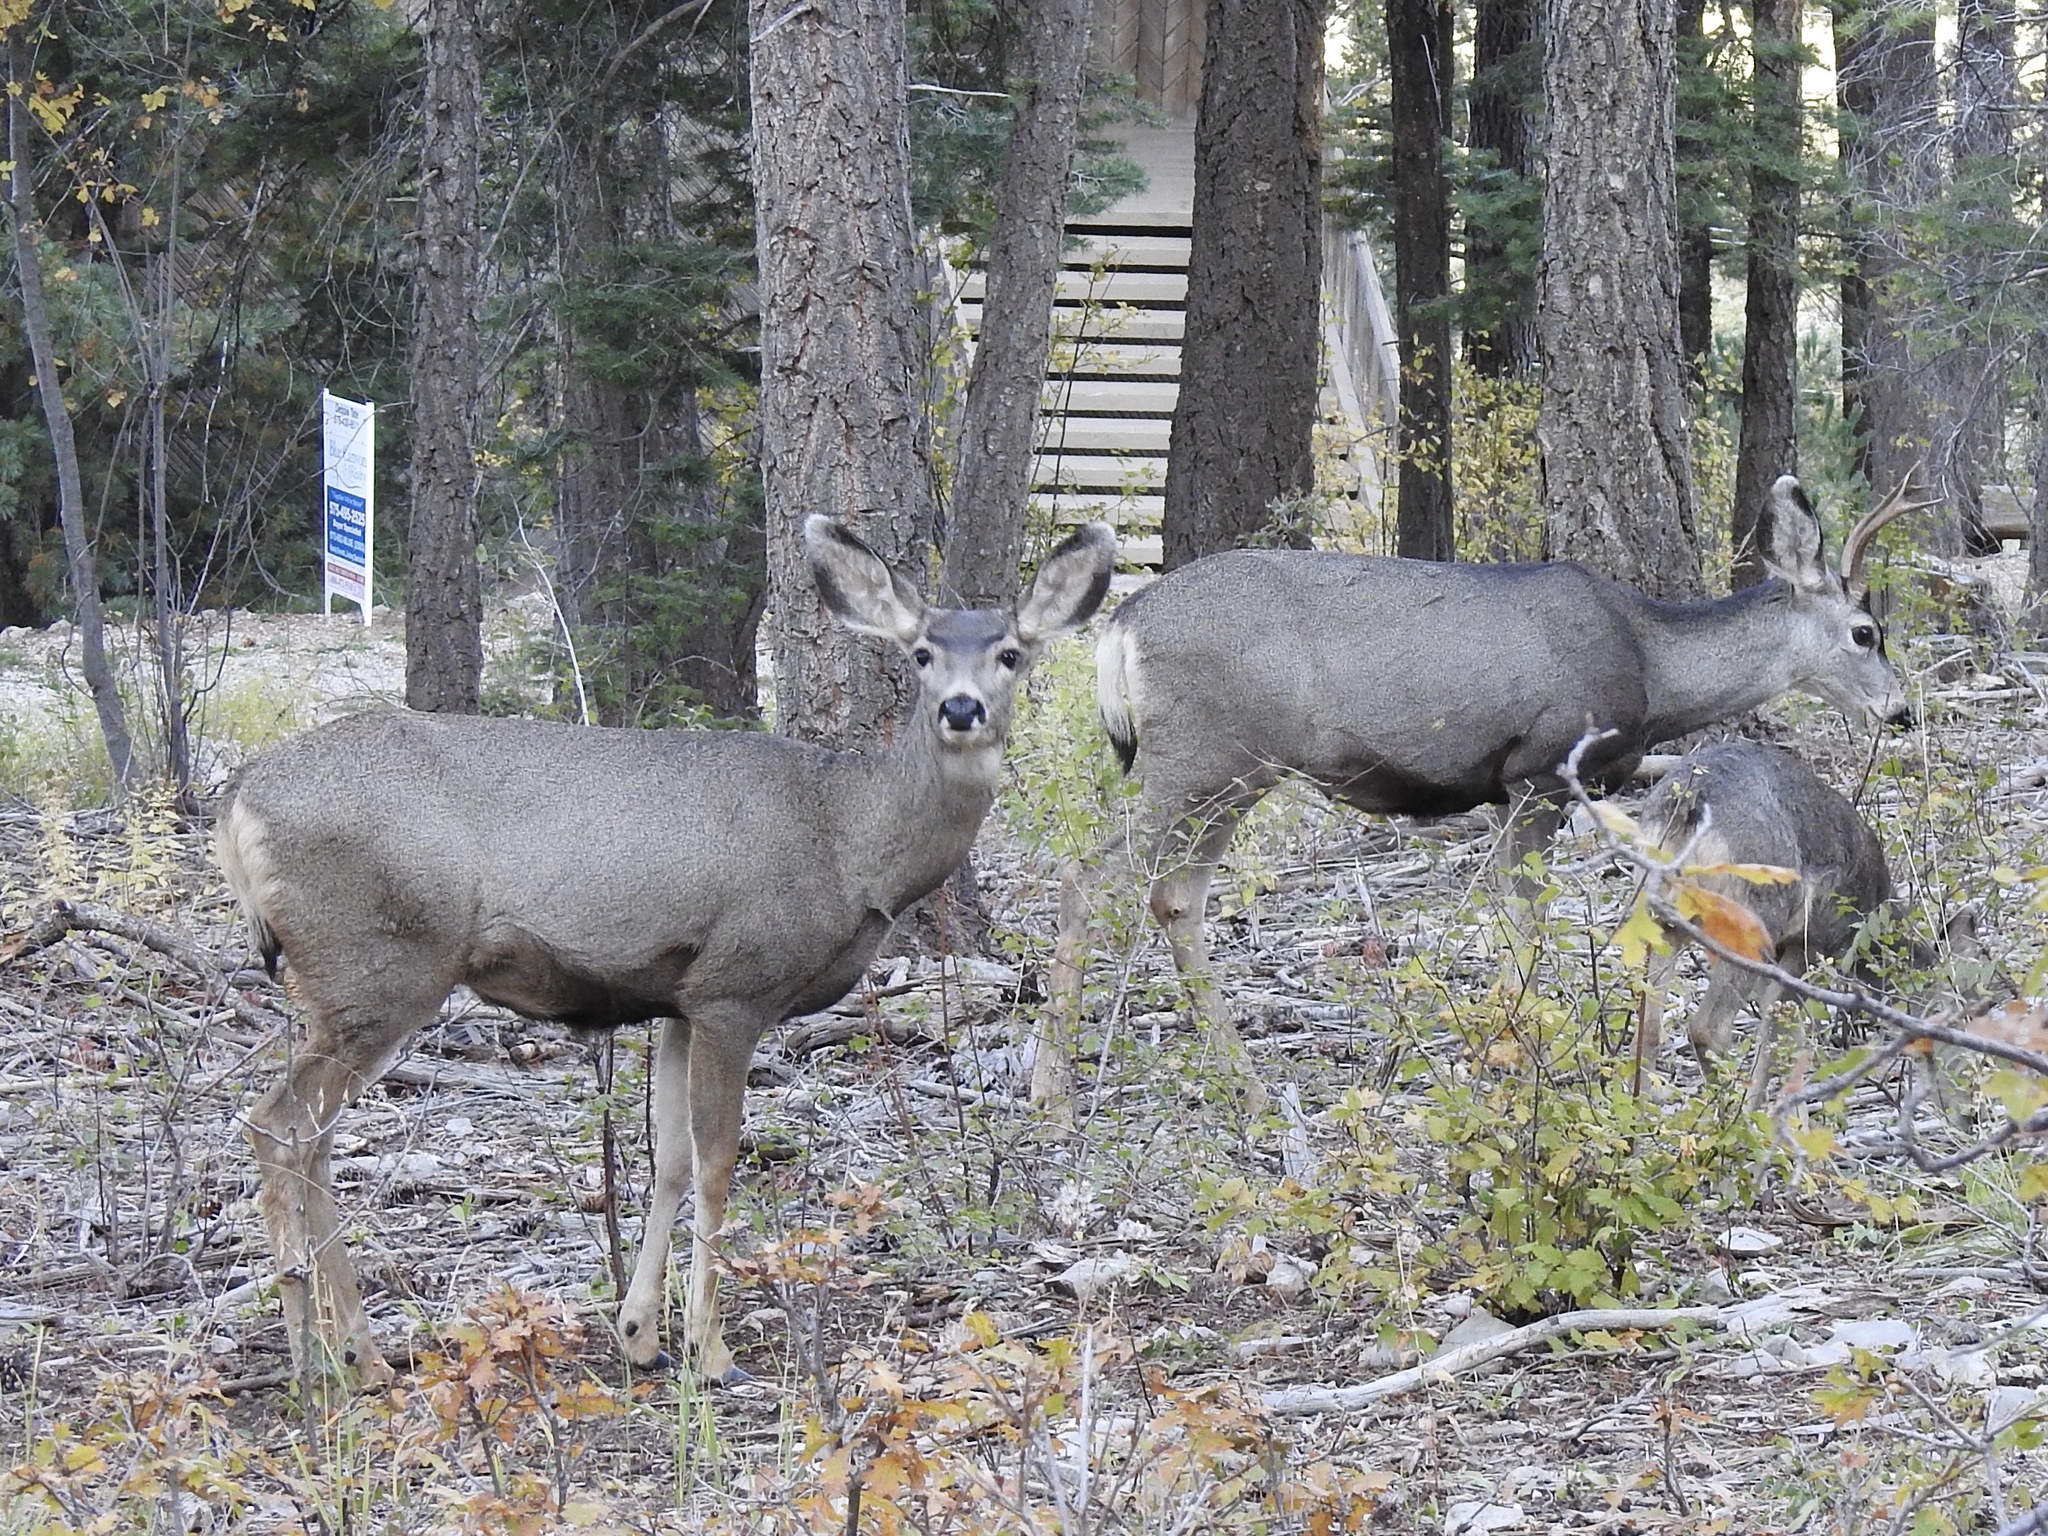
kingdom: Animalia
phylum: Chordata
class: Mammalia
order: Artiodactyla
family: Cervidae
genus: Odocoileus
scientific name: Odocoileus hemionus
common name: Mule deer
